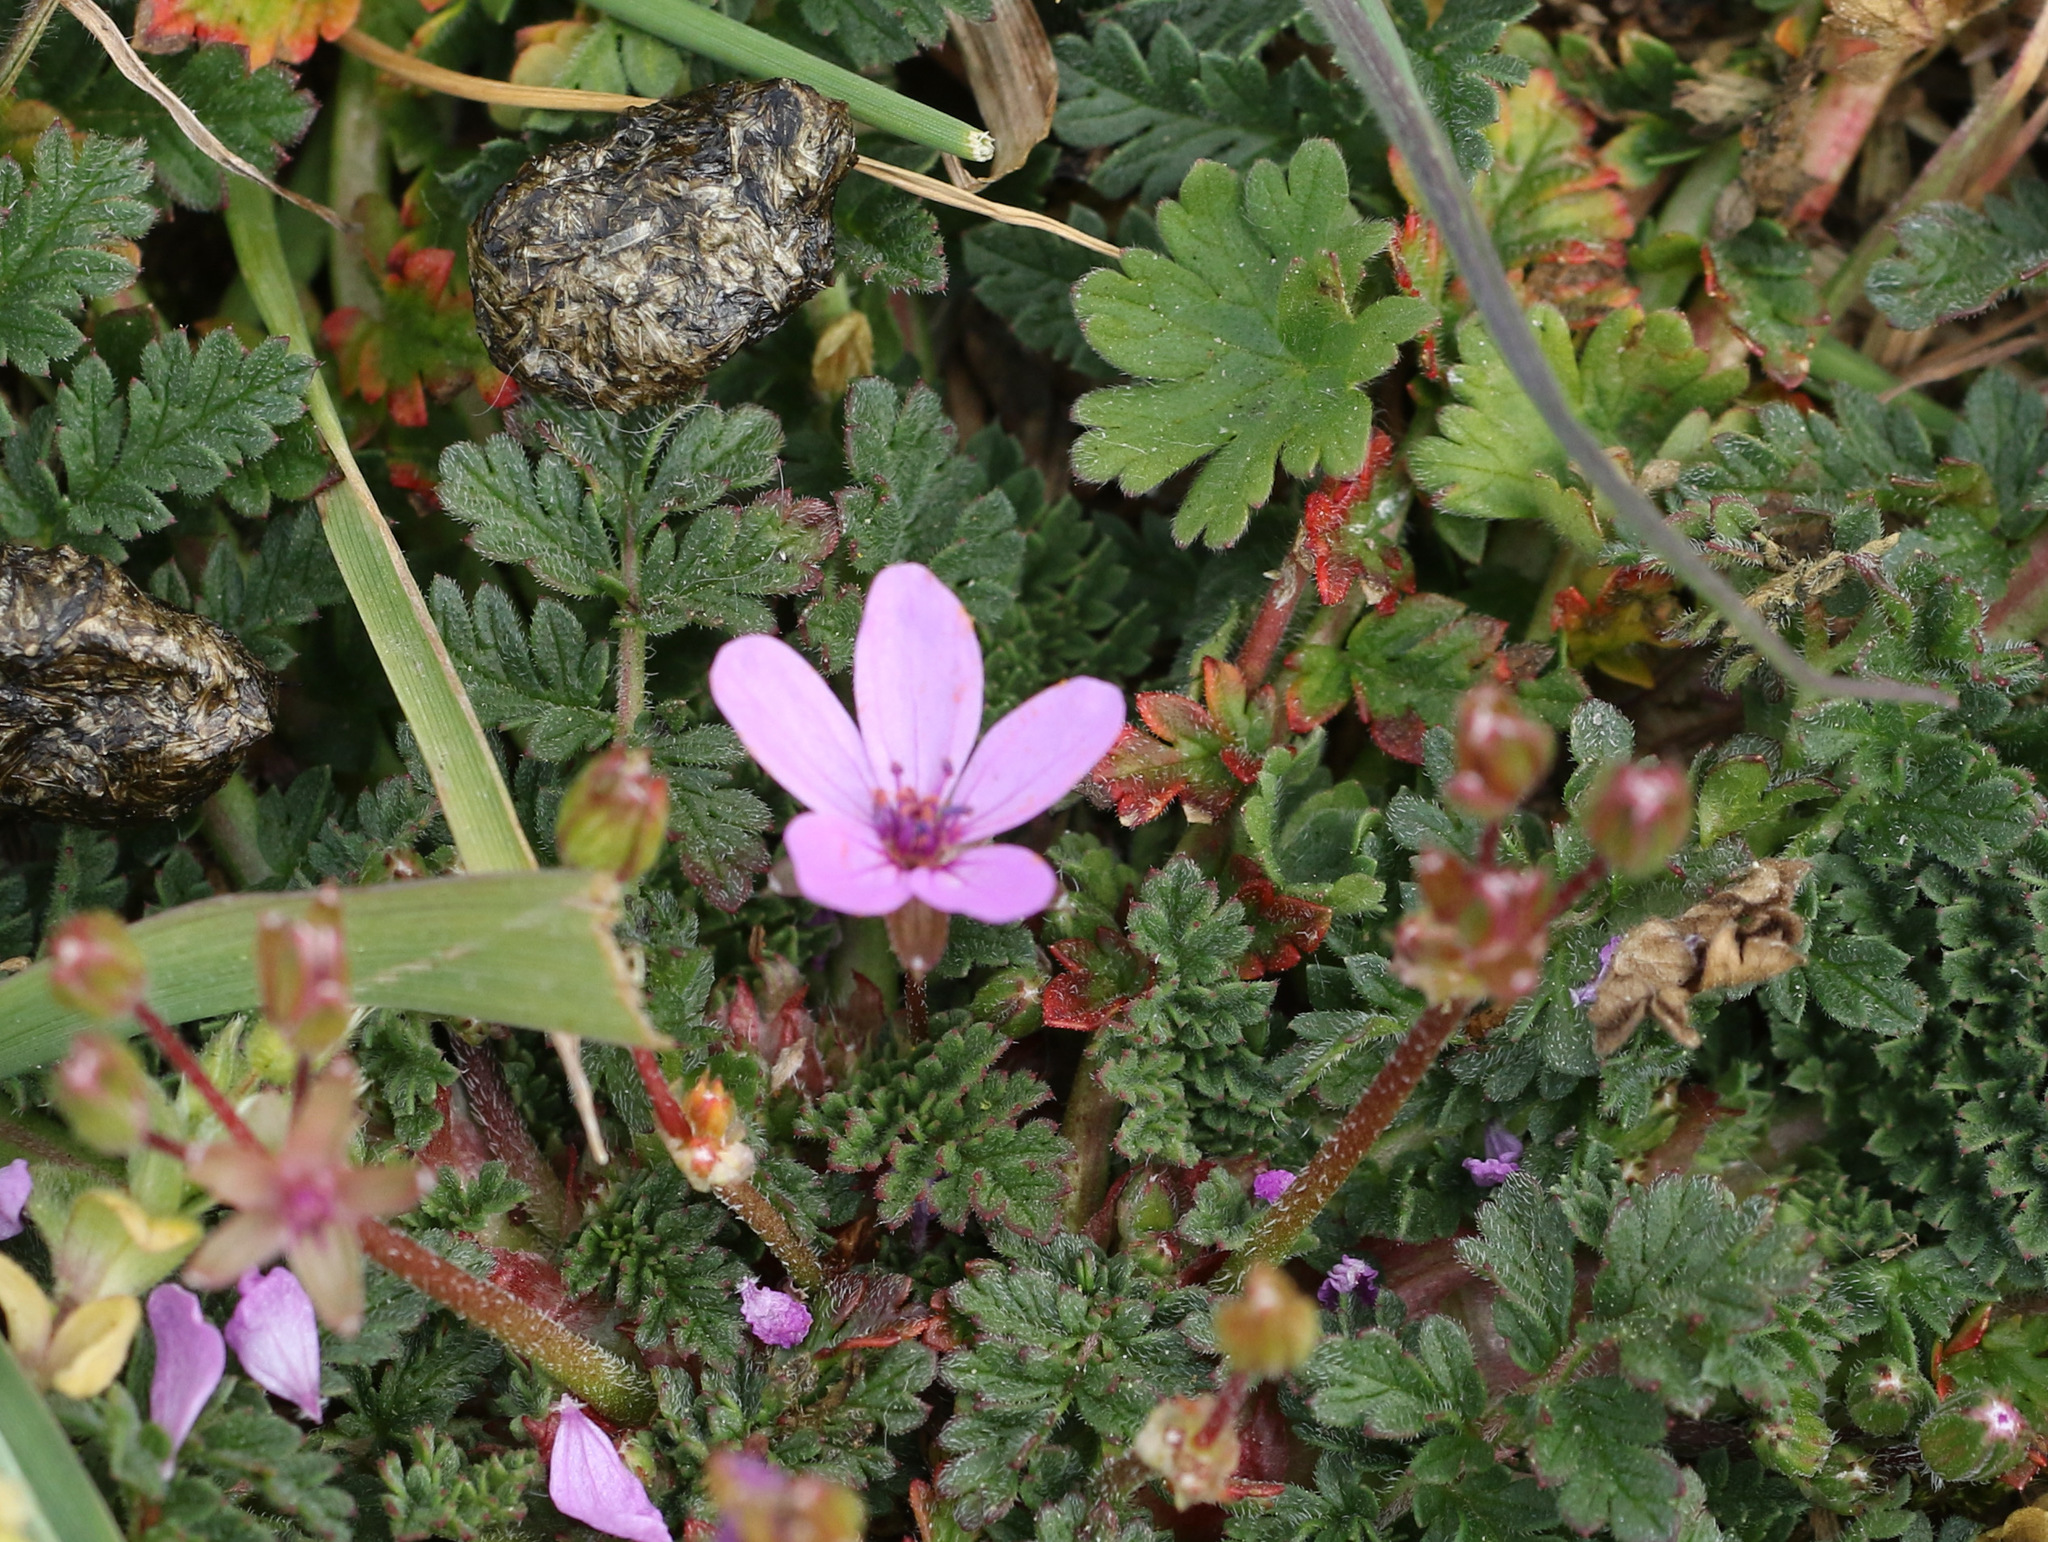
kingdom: Plantae
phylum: Tracheophyta
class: Magnoliopsida
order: Geraniales
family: Geraniaceae
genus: Erodium
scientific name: Erodium cicutarium
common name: Common stork's-bill
